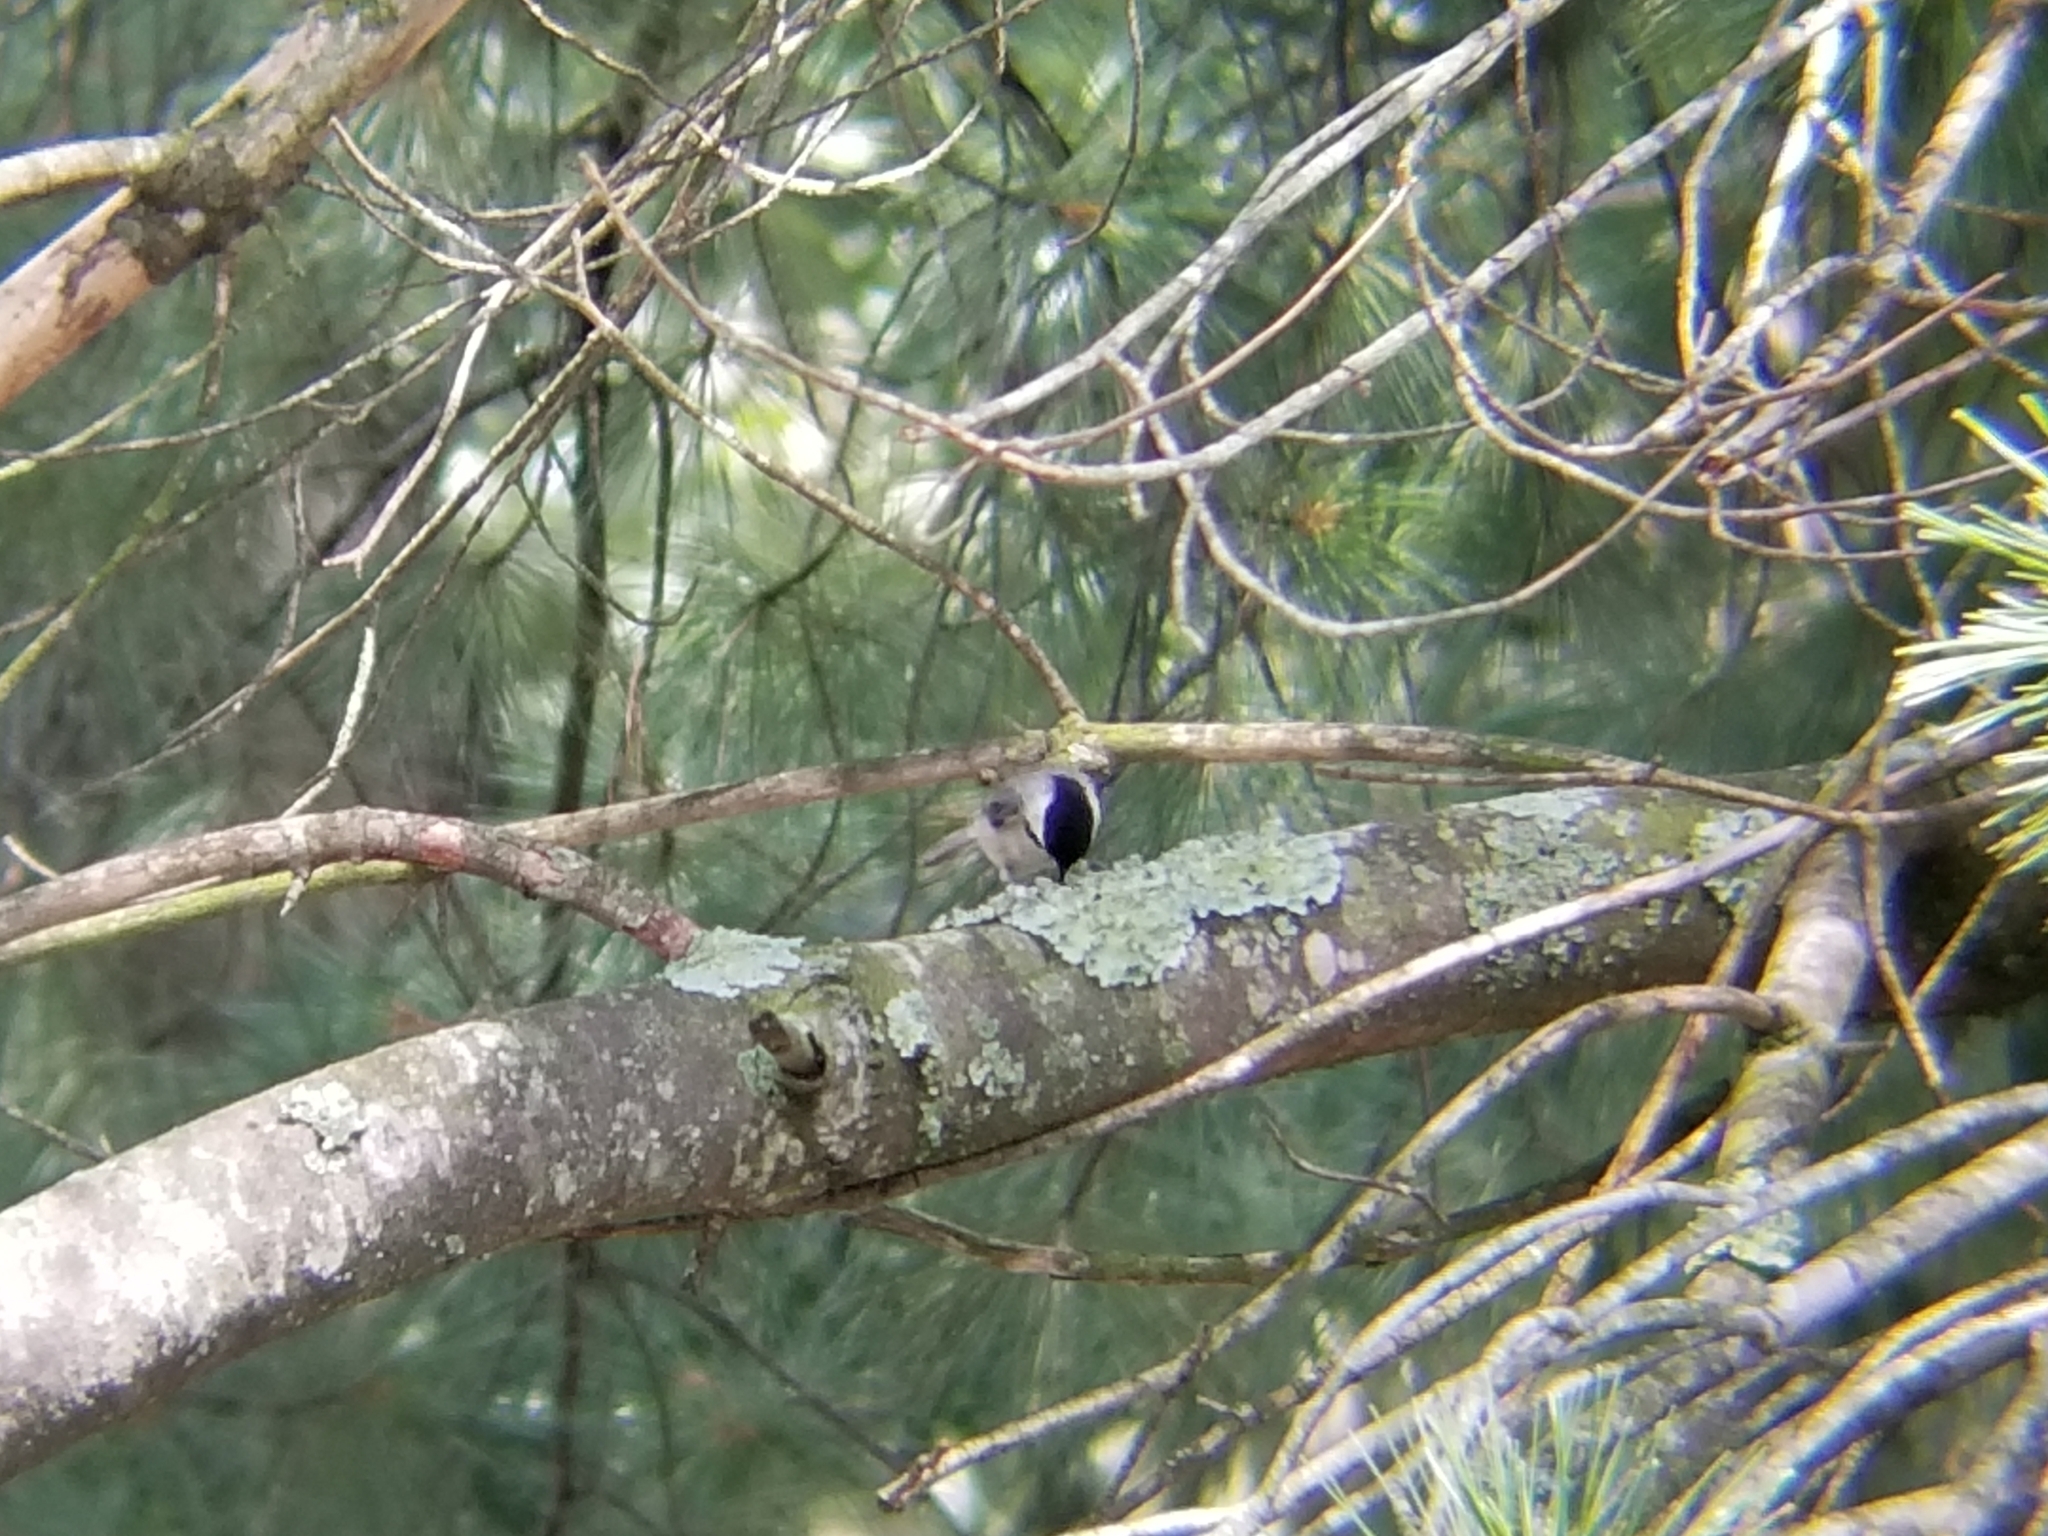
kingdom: Animalia
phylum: Chordata
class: Aves
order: Passeriformes
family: Paridae
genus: Poecile
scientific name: Poecile carolinensis
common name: Carolina chickadee
